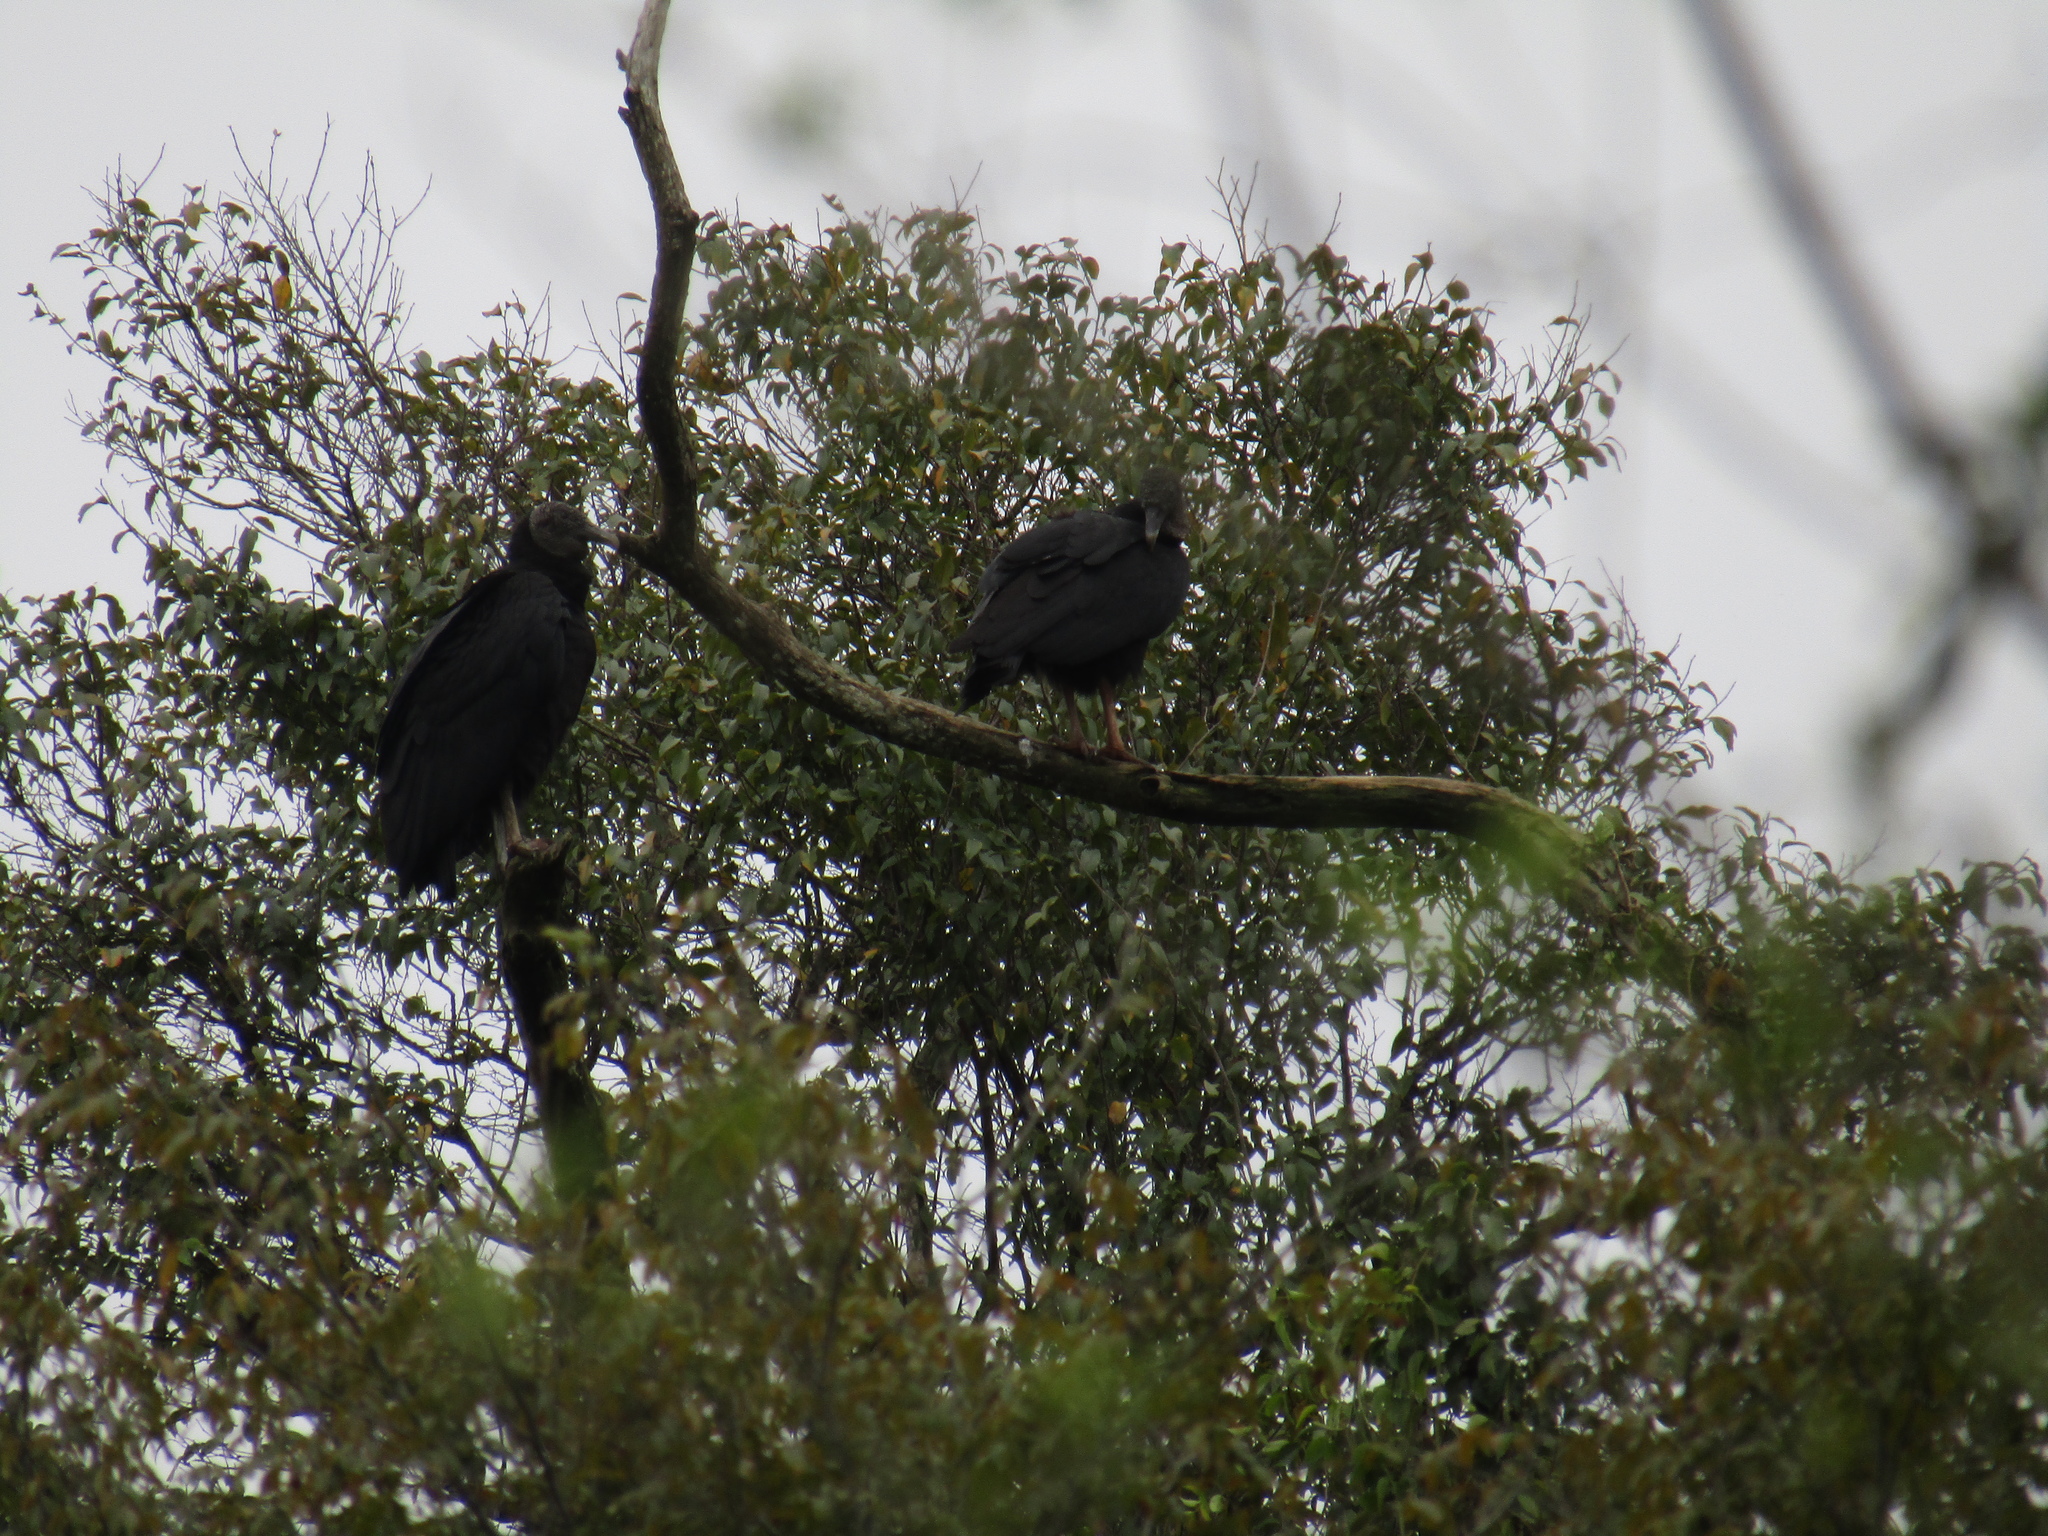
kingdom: Animalia
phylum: Chordata
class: Aves
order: Accipitriformes
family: Cathartidae
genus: Coragyps
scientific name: Coragyps atratus
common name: Black vulture
